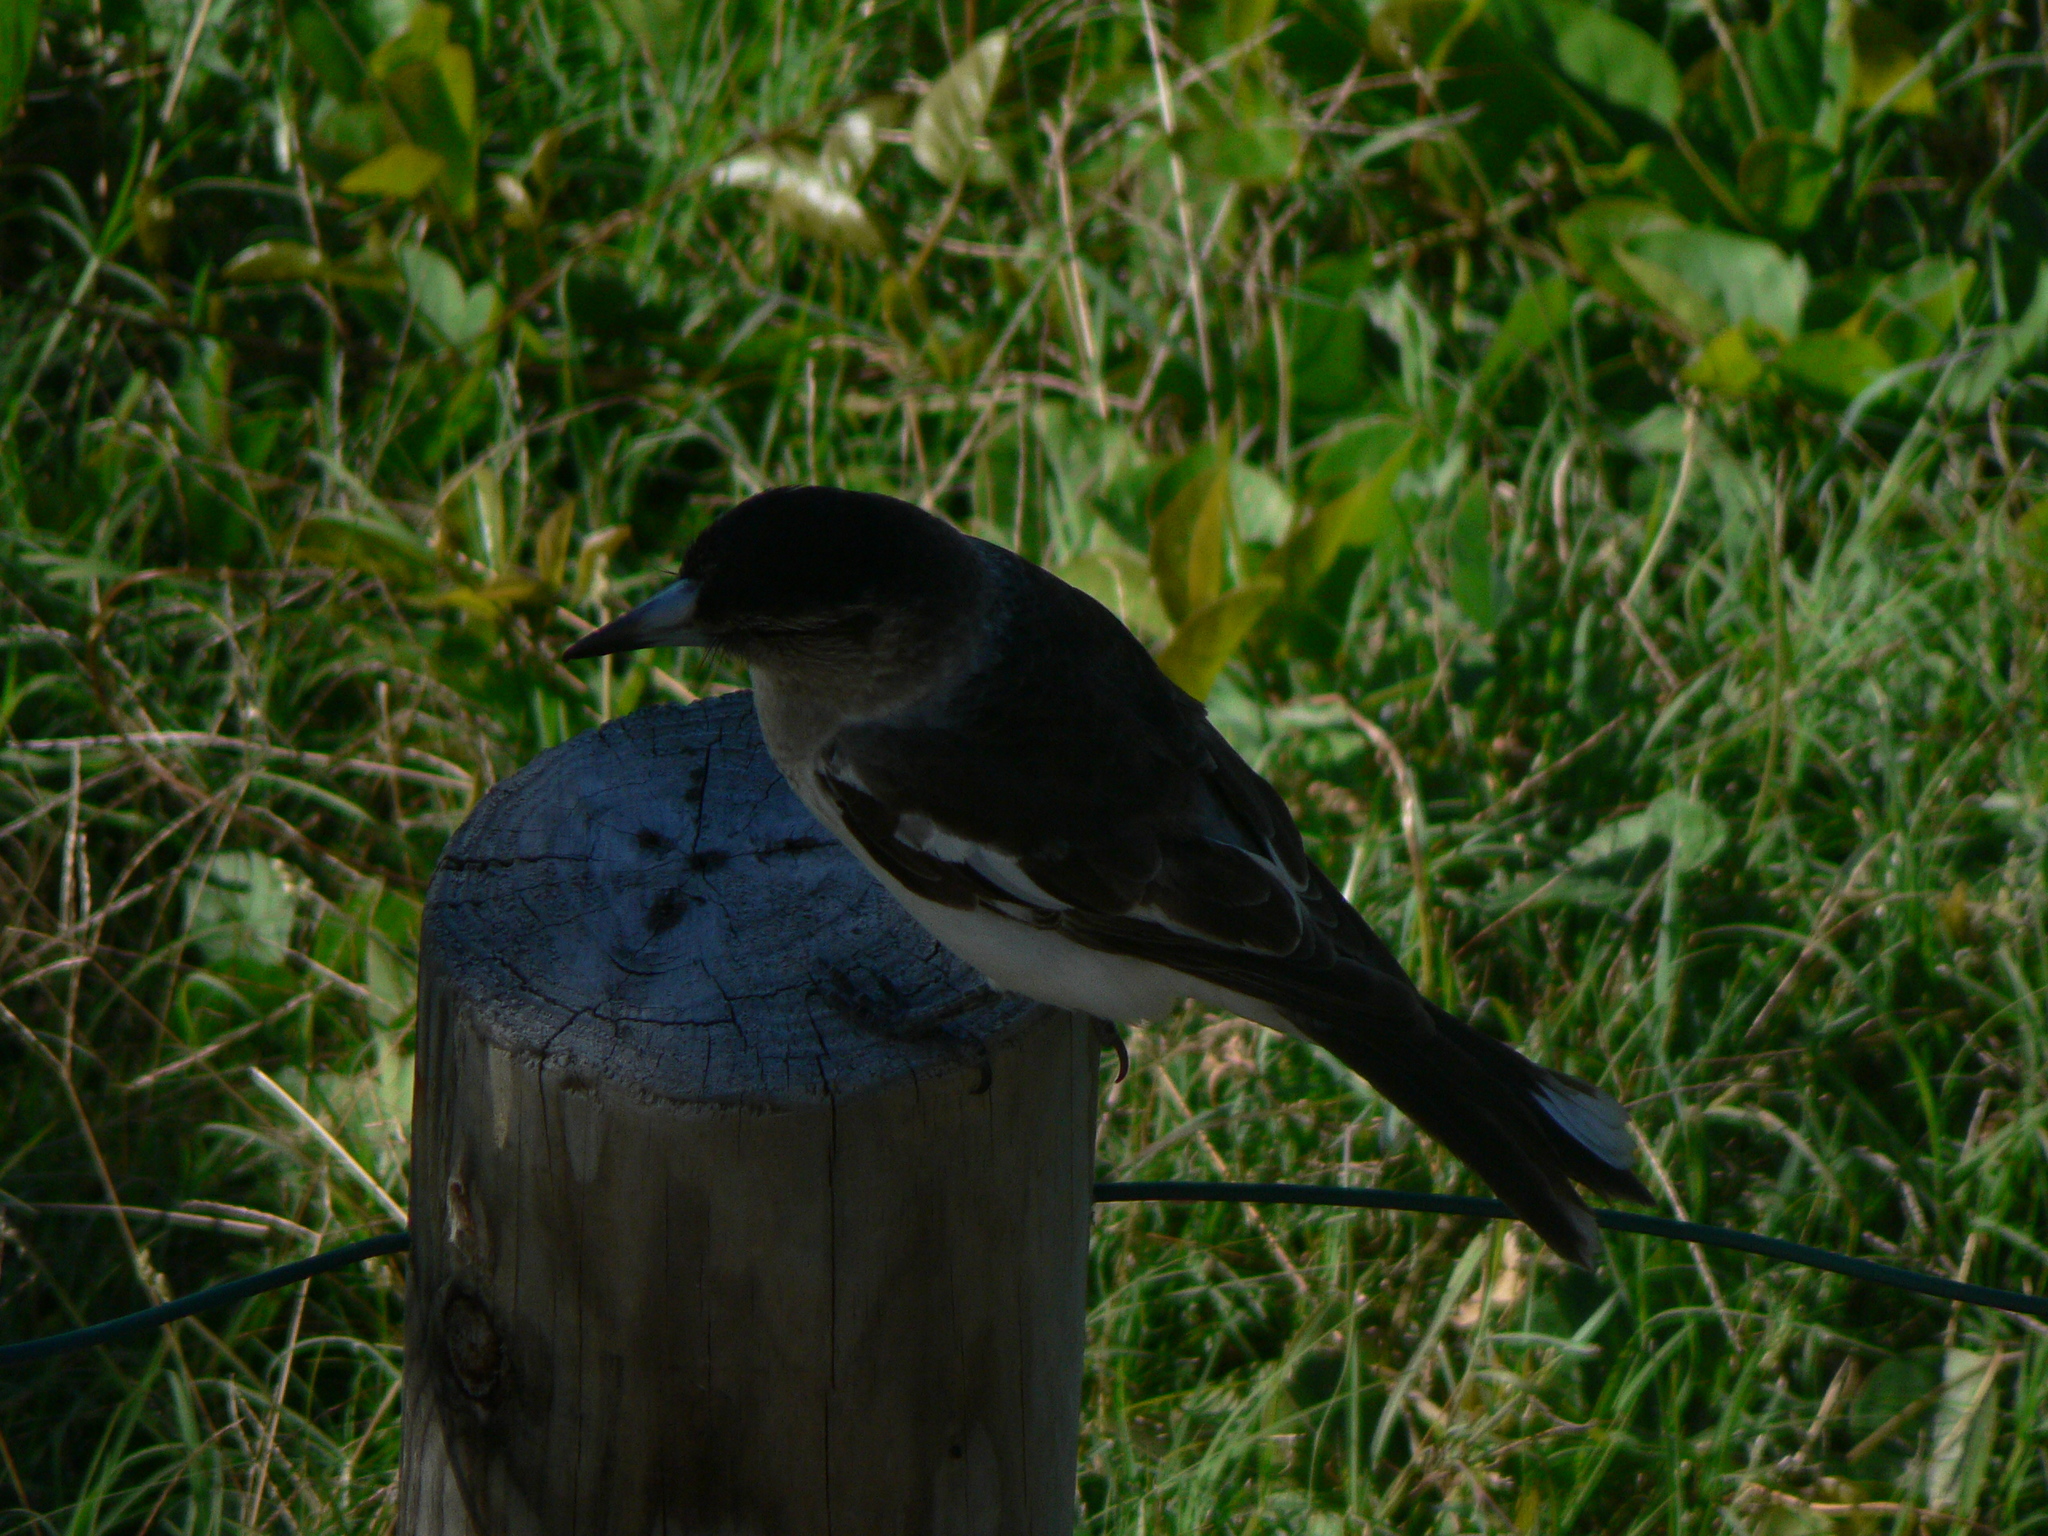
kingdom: Animalia
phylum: Chordata
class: Aves
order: Passeriformes
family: Cracticidae
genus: Cracticus
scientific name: Cracticus nigrogularis
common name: Pied butcherbird
